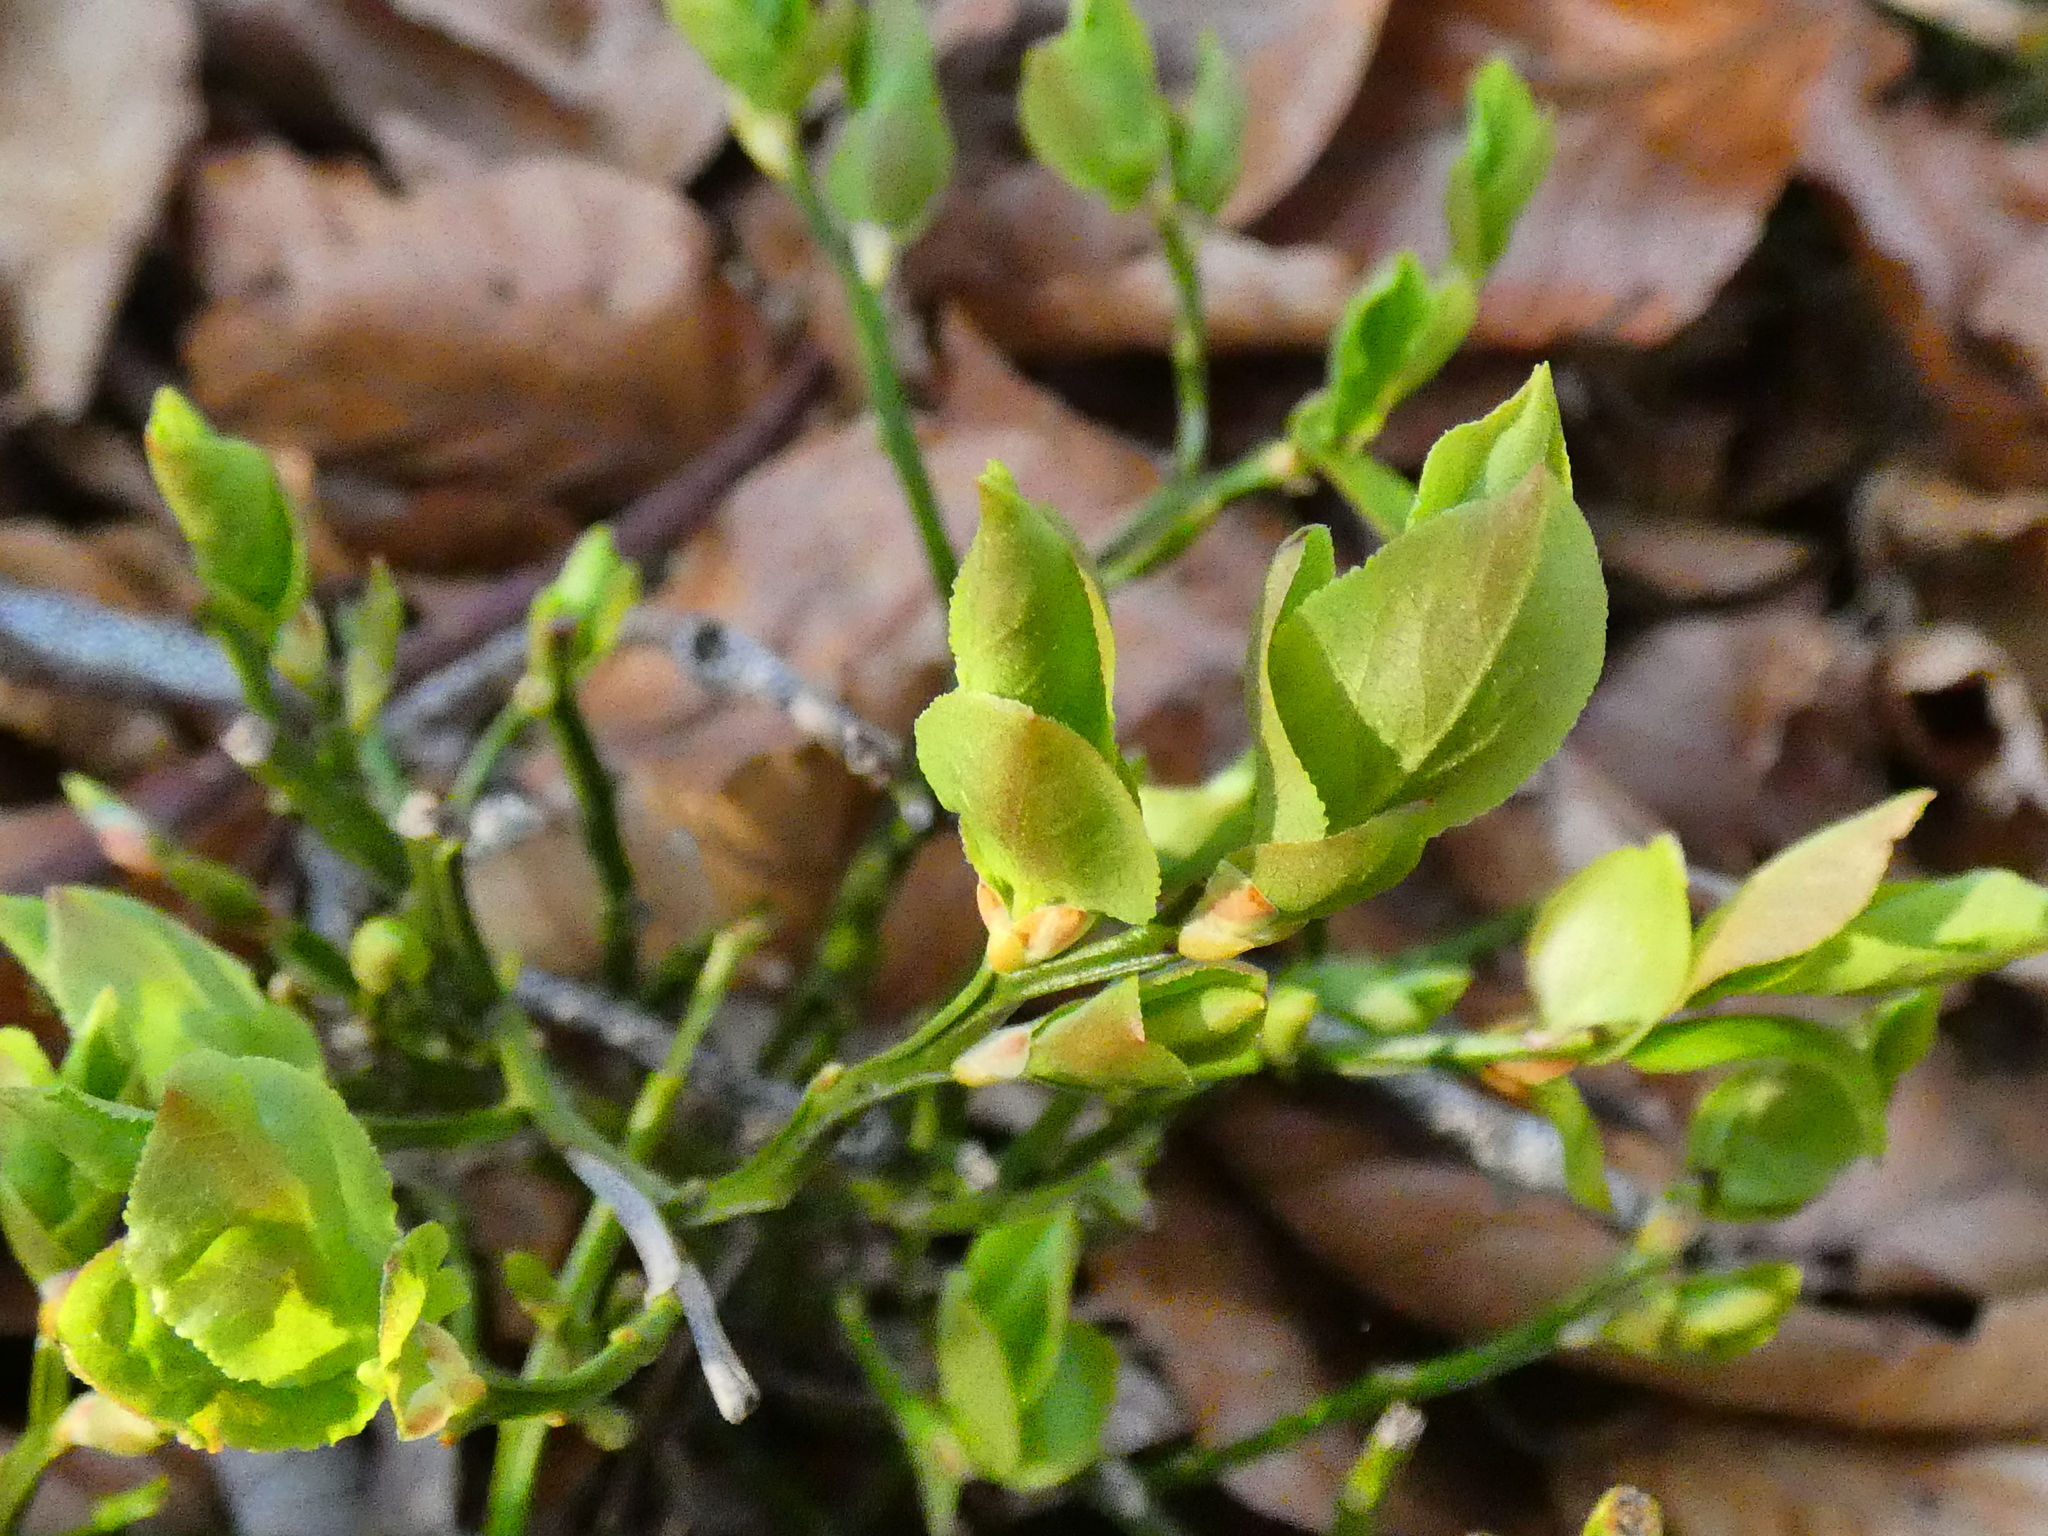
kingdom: Plantae
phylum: Tracheophyta
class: Magnoliopsida
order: Ericales
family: Ericaceae
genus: Vaccinium
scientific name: Vaccinium myrtillus
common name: Bilberry
